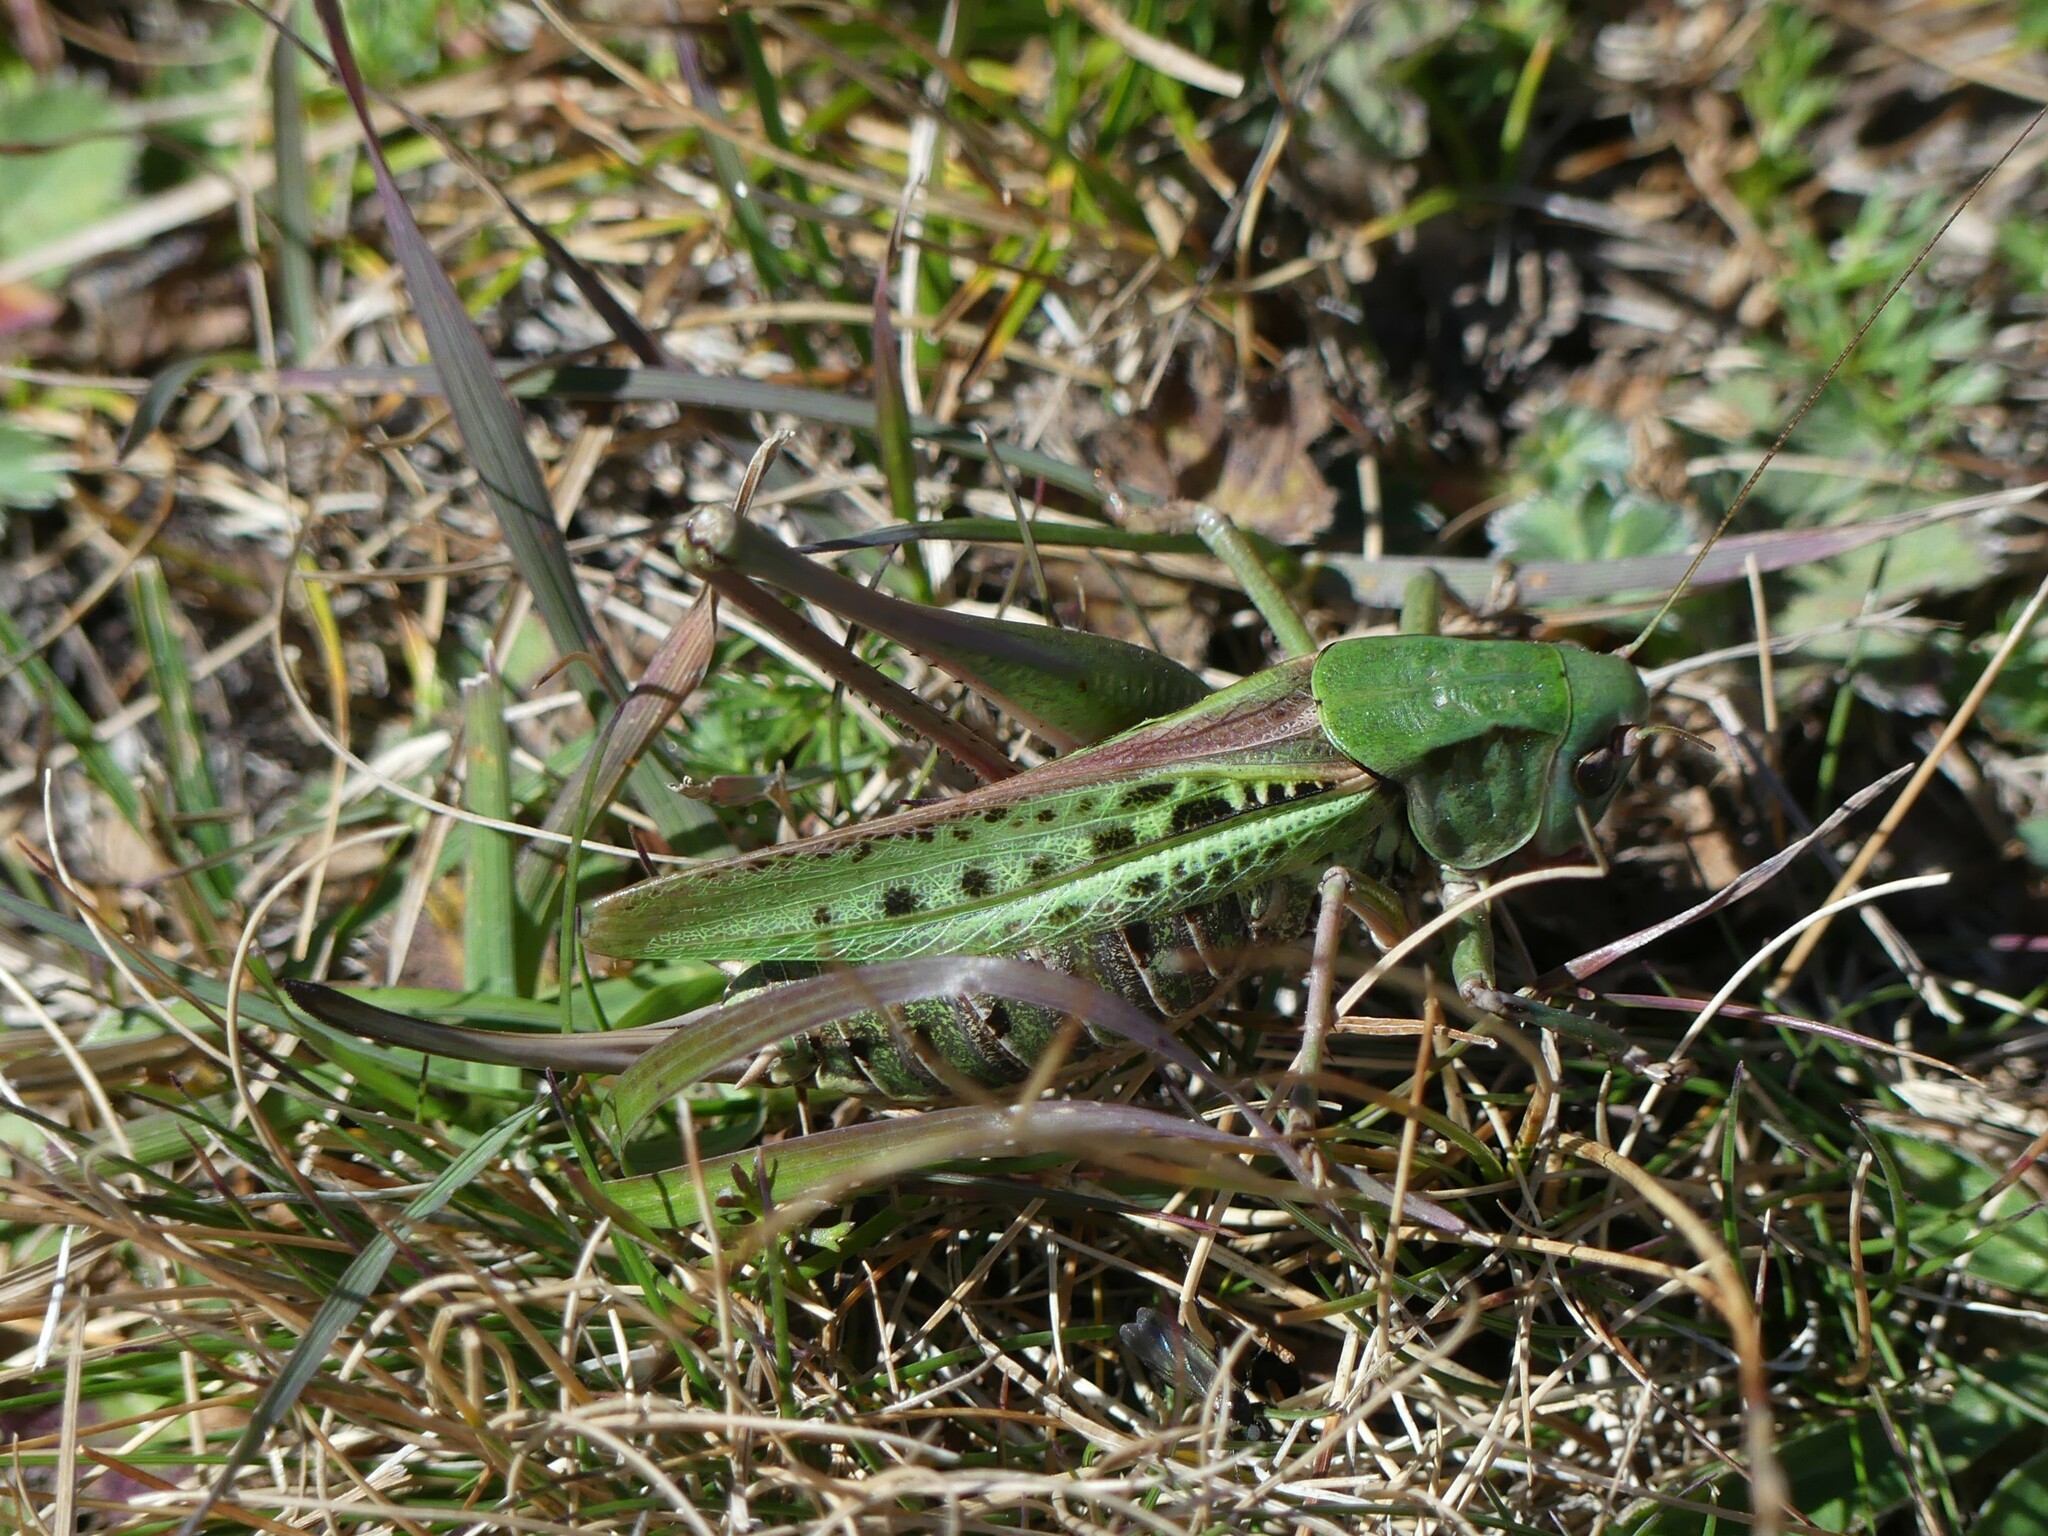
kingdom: Animalia
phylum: Arthropoda
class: Insecta
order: Orthoptera
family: Tettigoniidae
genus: Decticus
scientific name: Decticus verrucivorus
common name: Wart-biter
